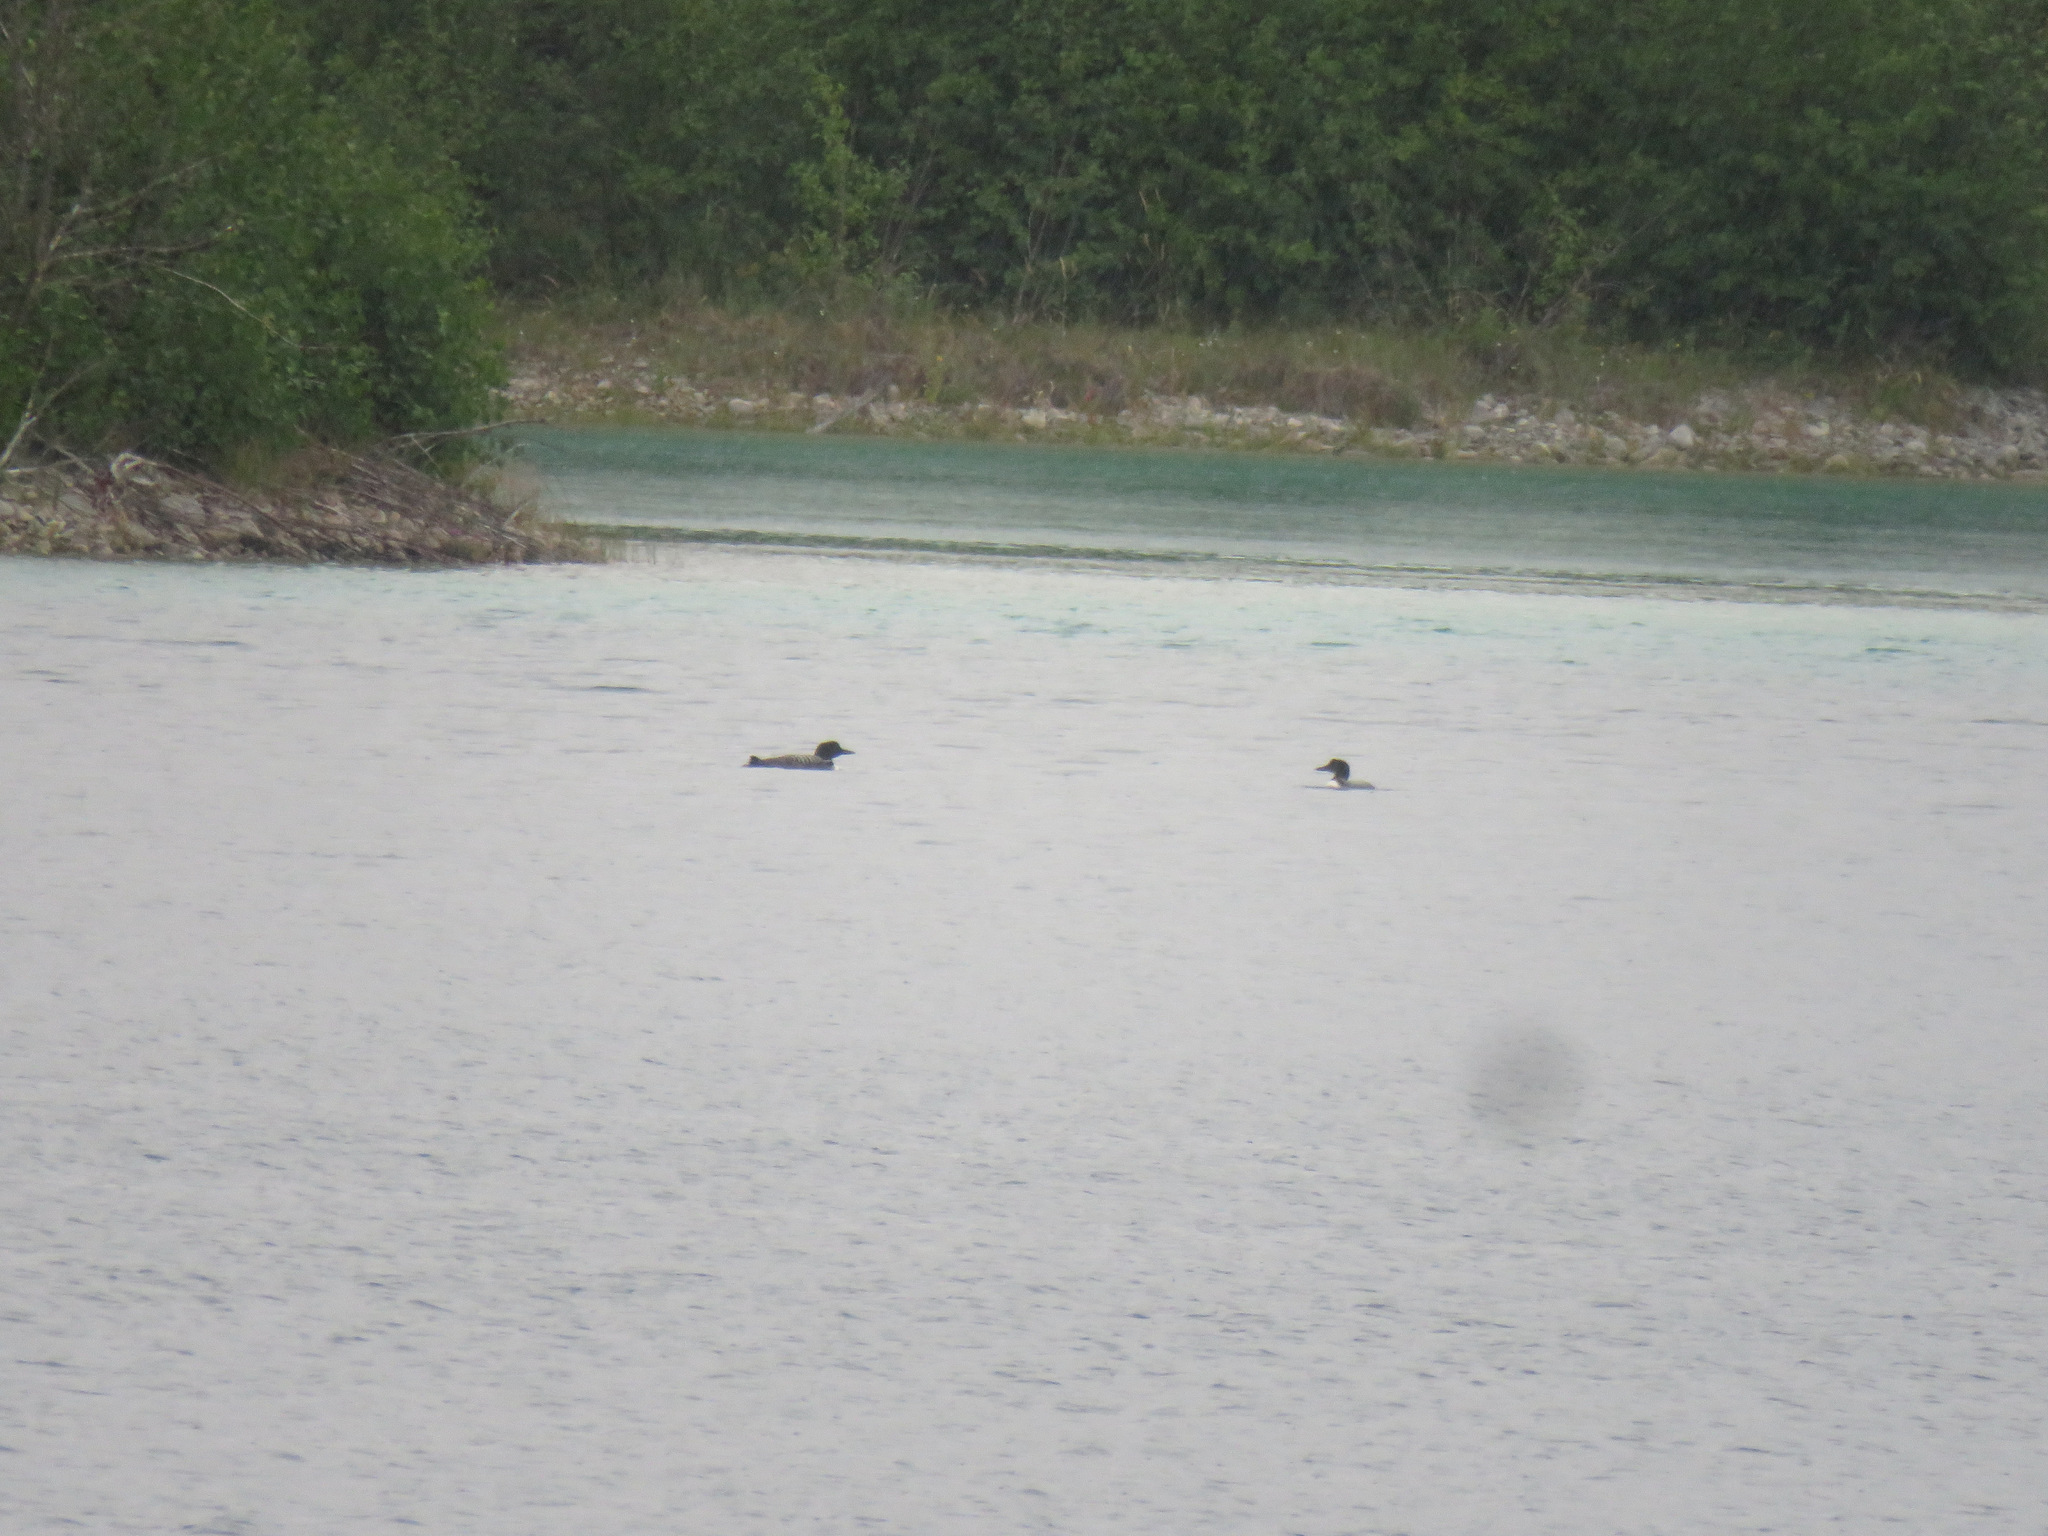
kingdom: Animalia
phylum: Chordata
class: Aves
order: Gaviiformes
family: Gaviidae
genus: Gavia
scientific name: Gavia immer
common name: Common loon
